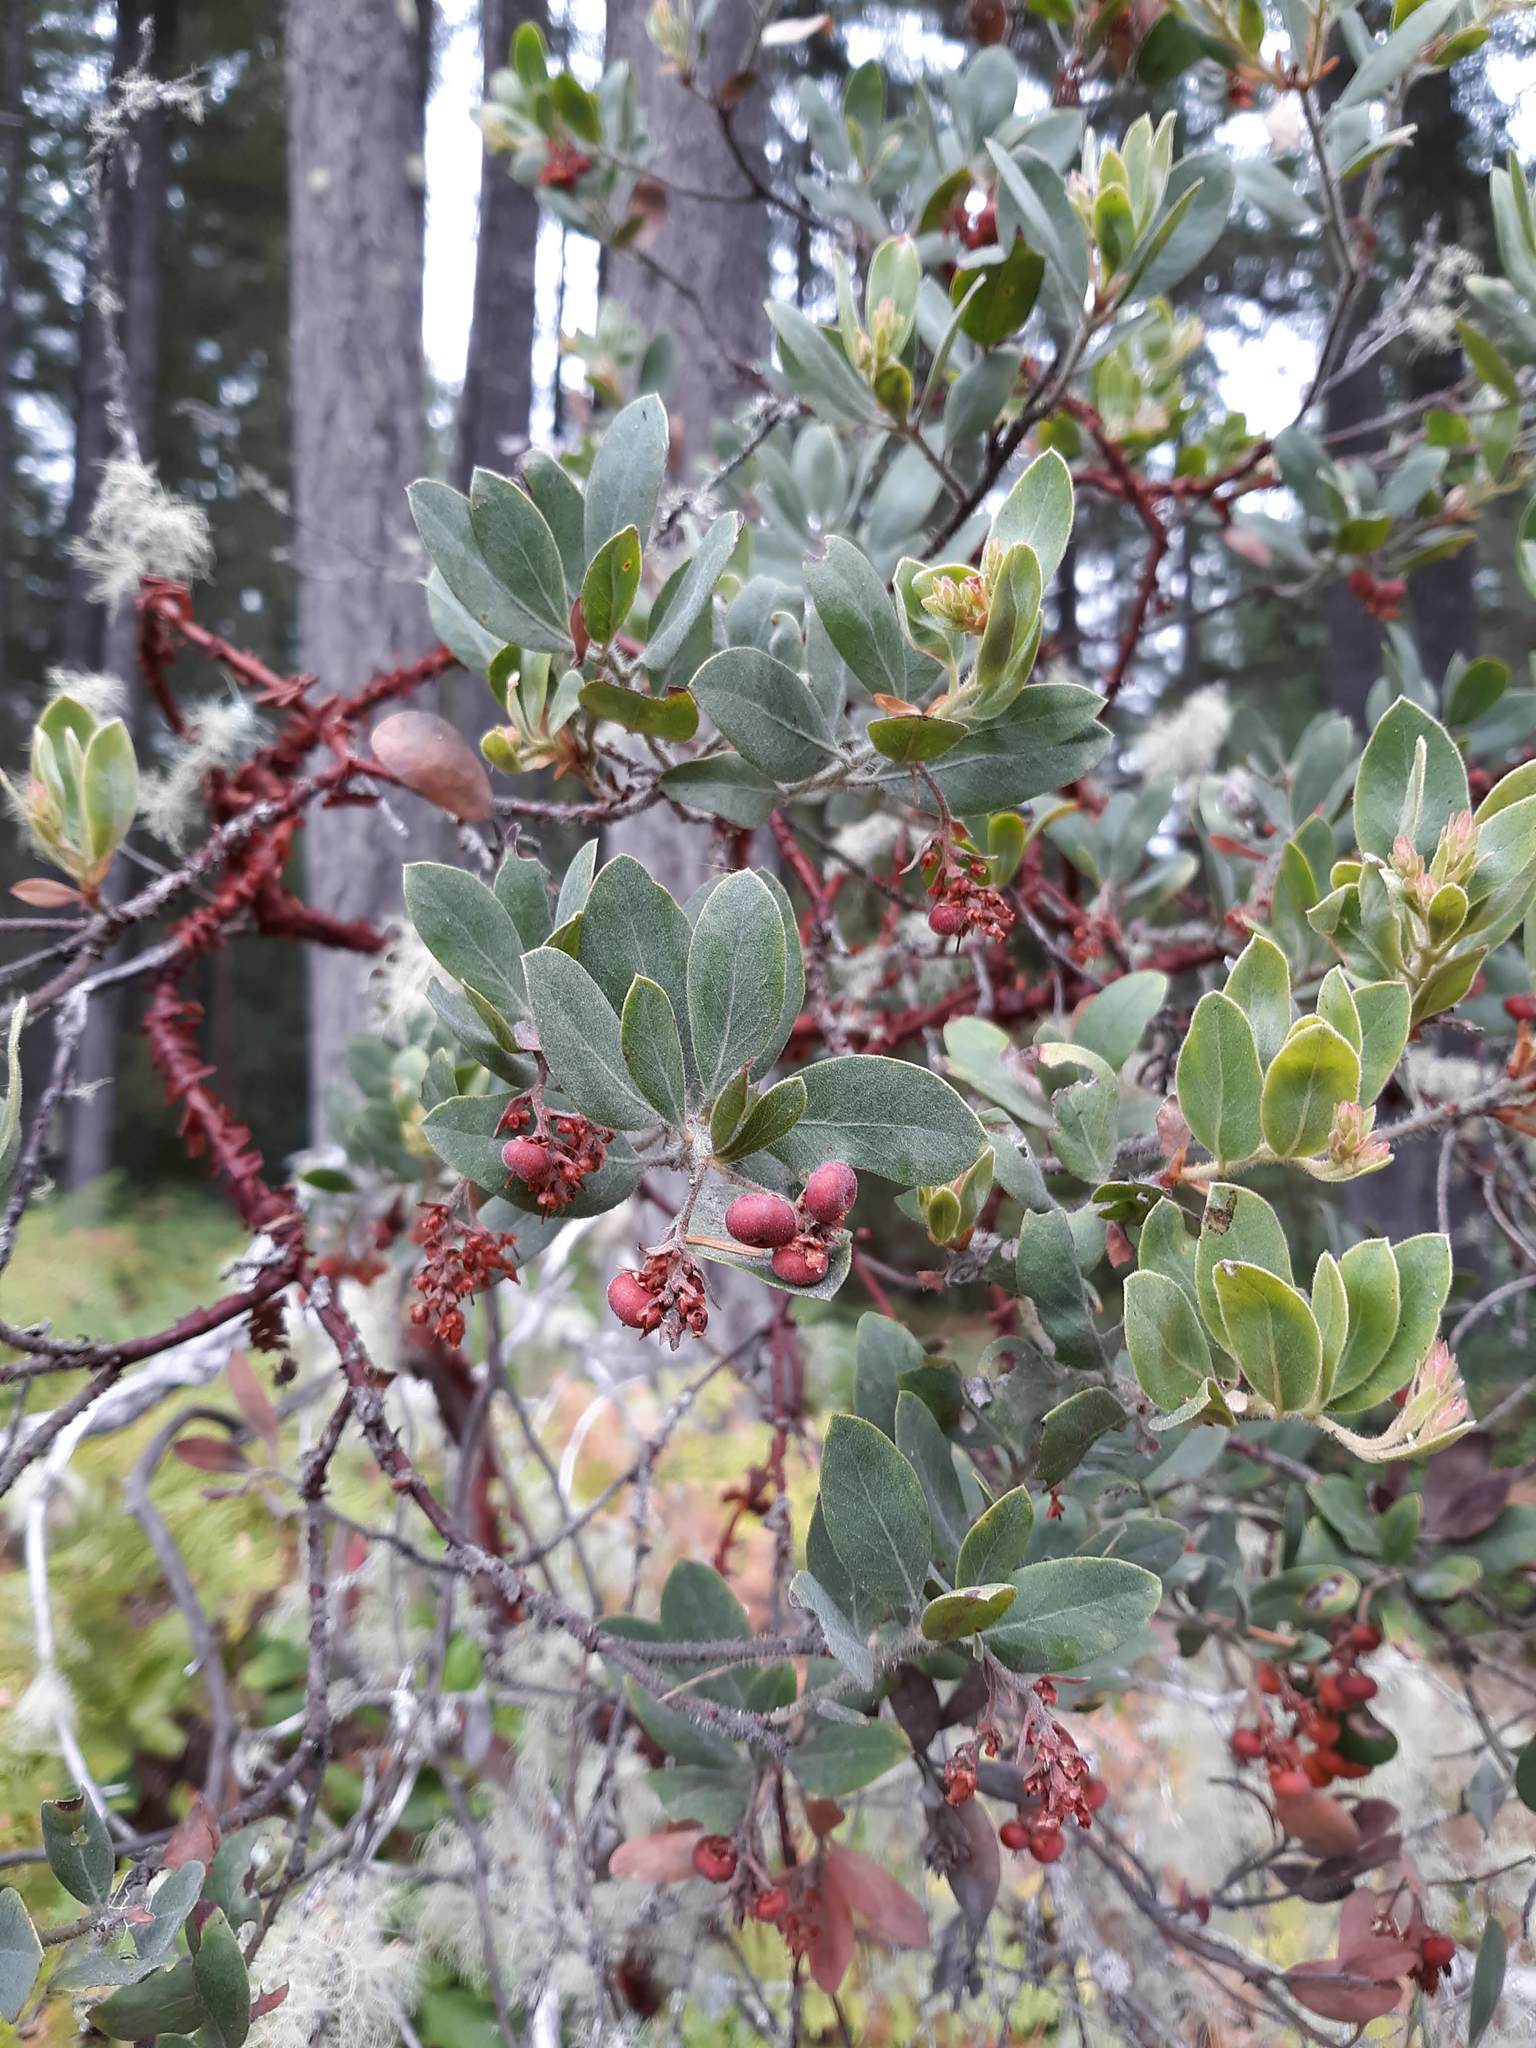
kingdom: Plantae
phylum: Tracheophyta
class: Magnoliopsida
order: Ericales
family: Ericaceae
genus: Arctostaphylos
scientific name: Arctostaphylos columbiana
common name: Bristly bearberry
